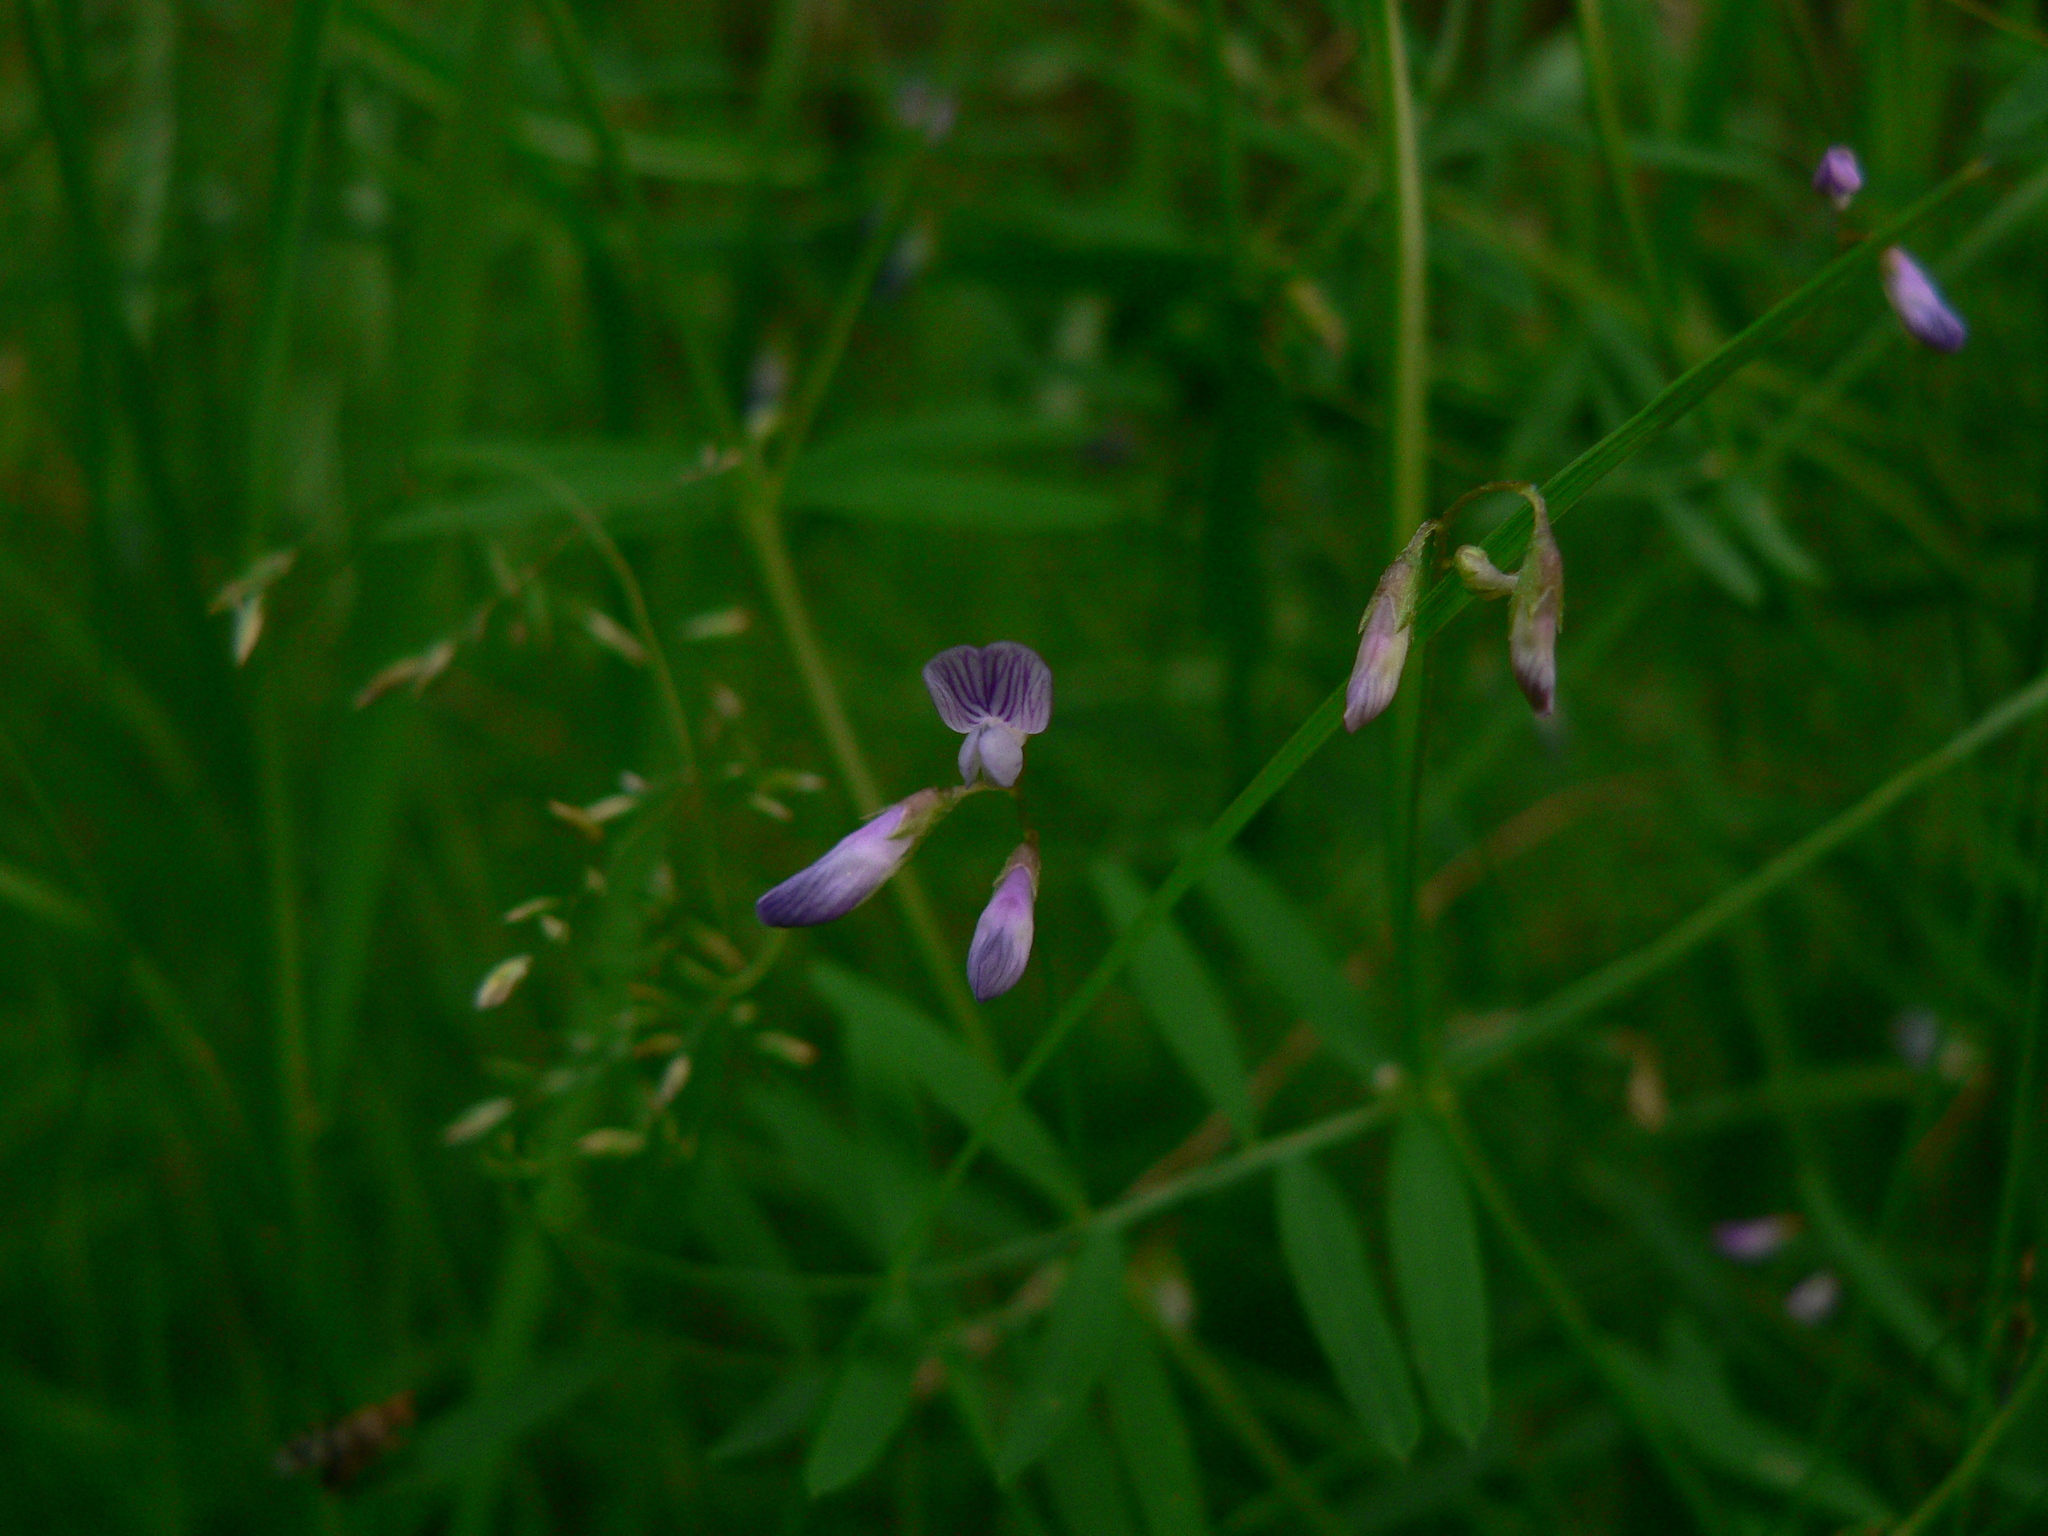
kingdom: Plantae
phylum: Tracheophyta
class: Magnoliopsida
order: Fabales
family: Fabaceae
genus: Vicia
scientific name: Vicia tetrasperma
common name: Smooth tare
